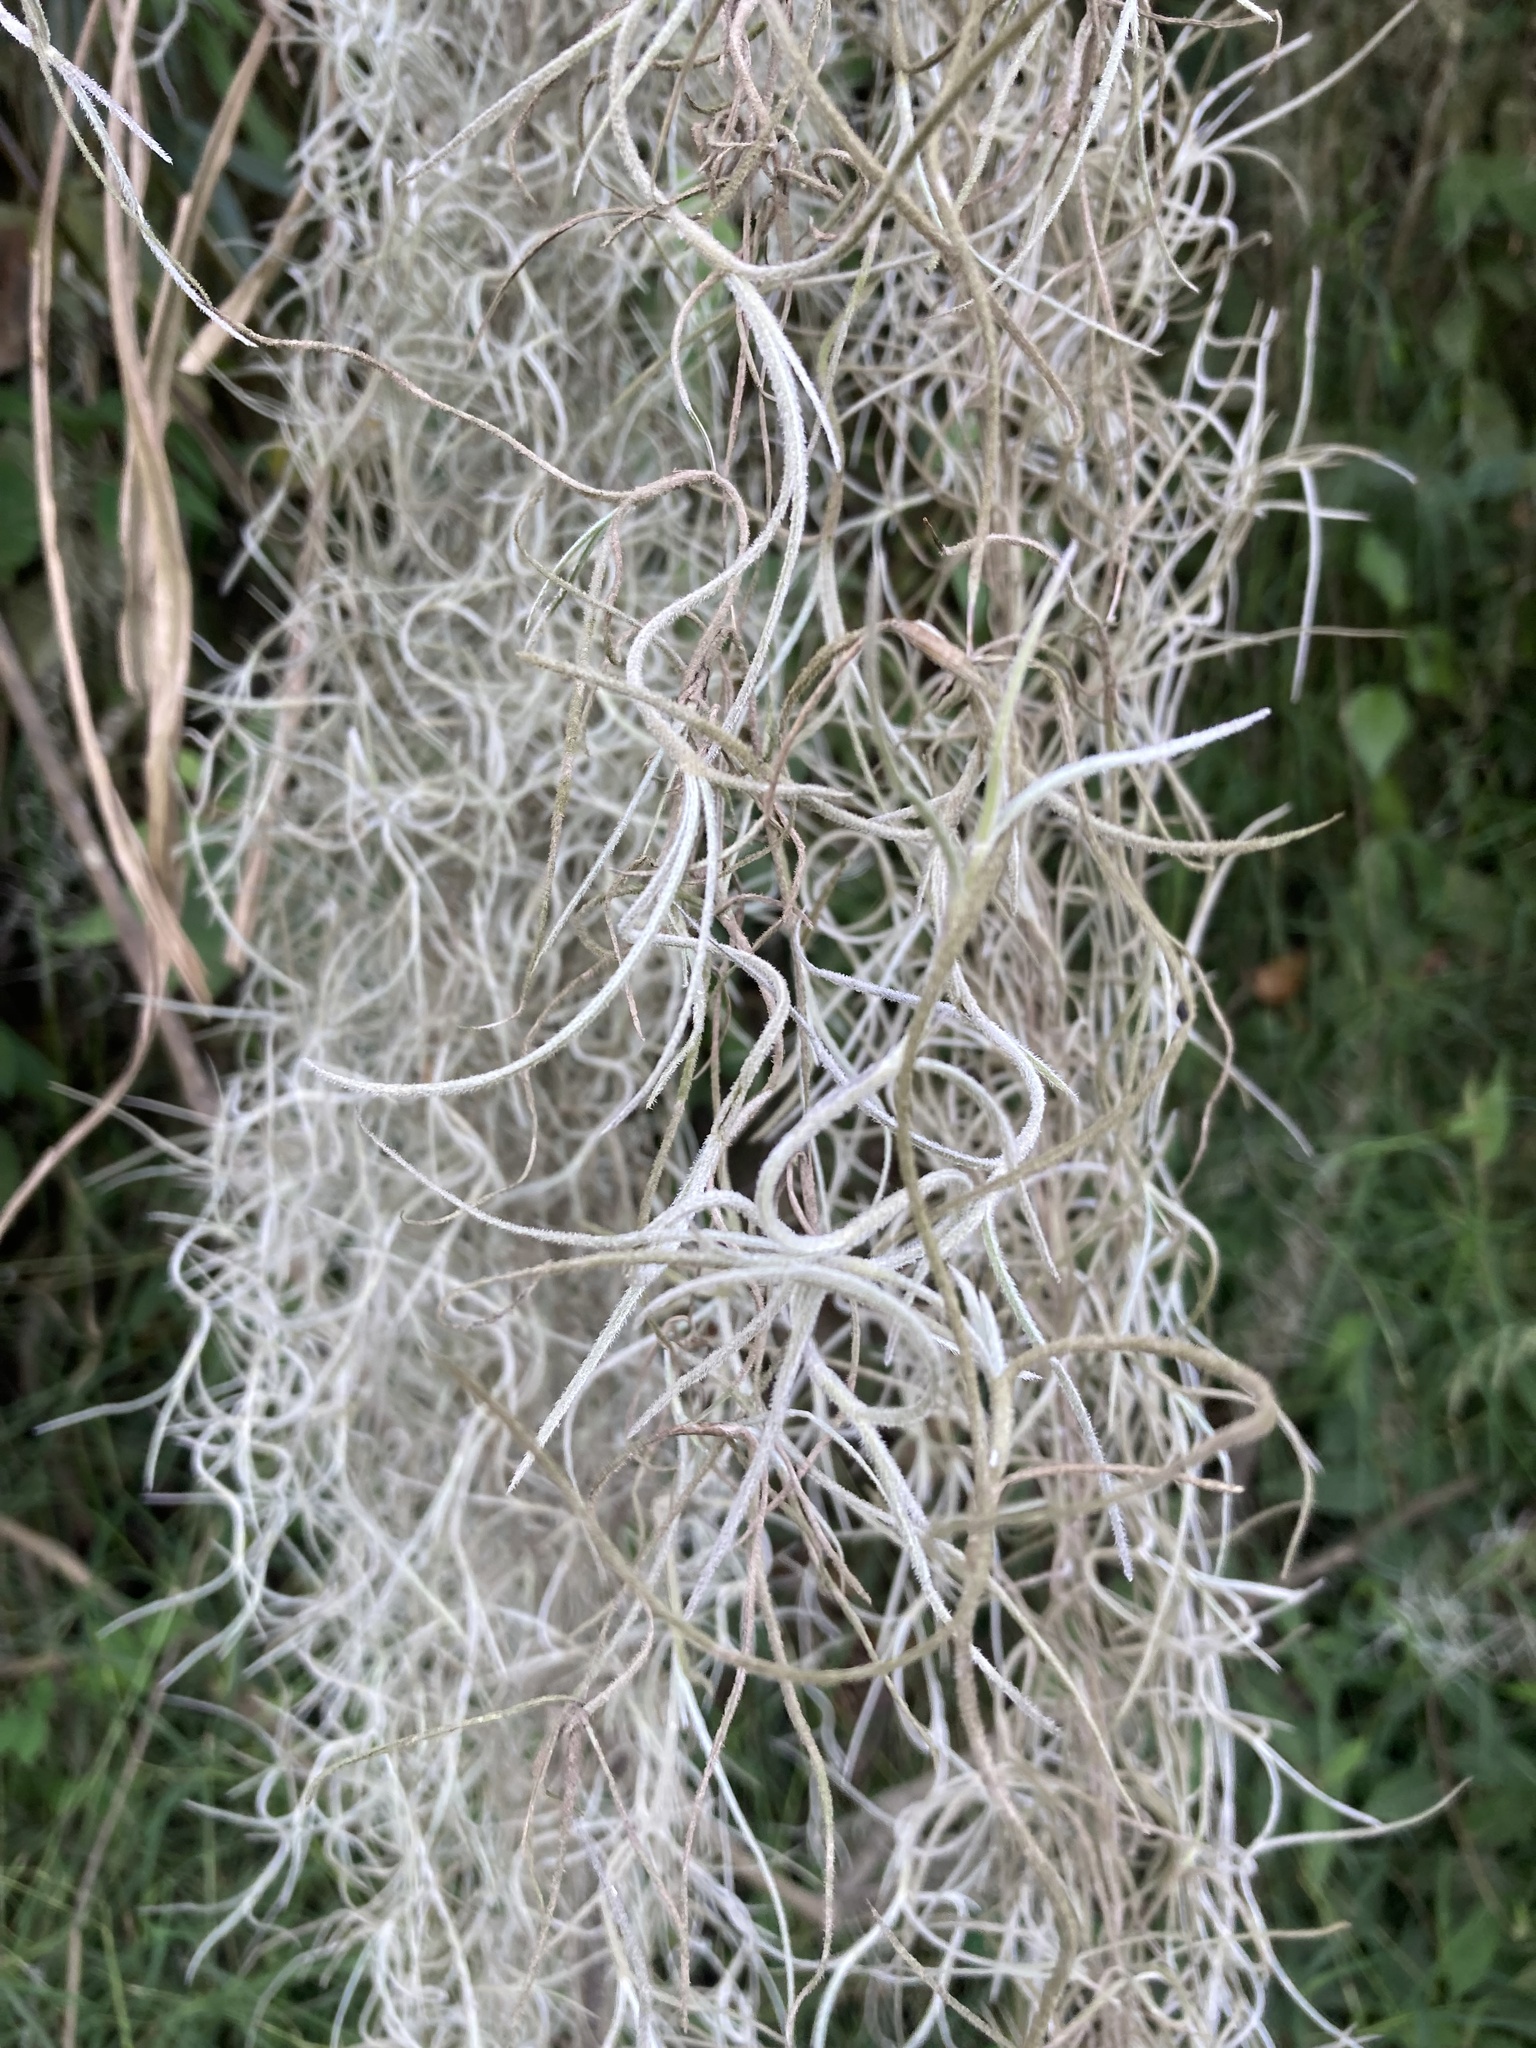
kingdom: Plantae
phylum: Tracheophyta
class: Liliopsida
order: Poales
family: Bromeliaceae
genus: Tillandsia
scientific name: Tillandsia usneoides
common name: Spanish moss
